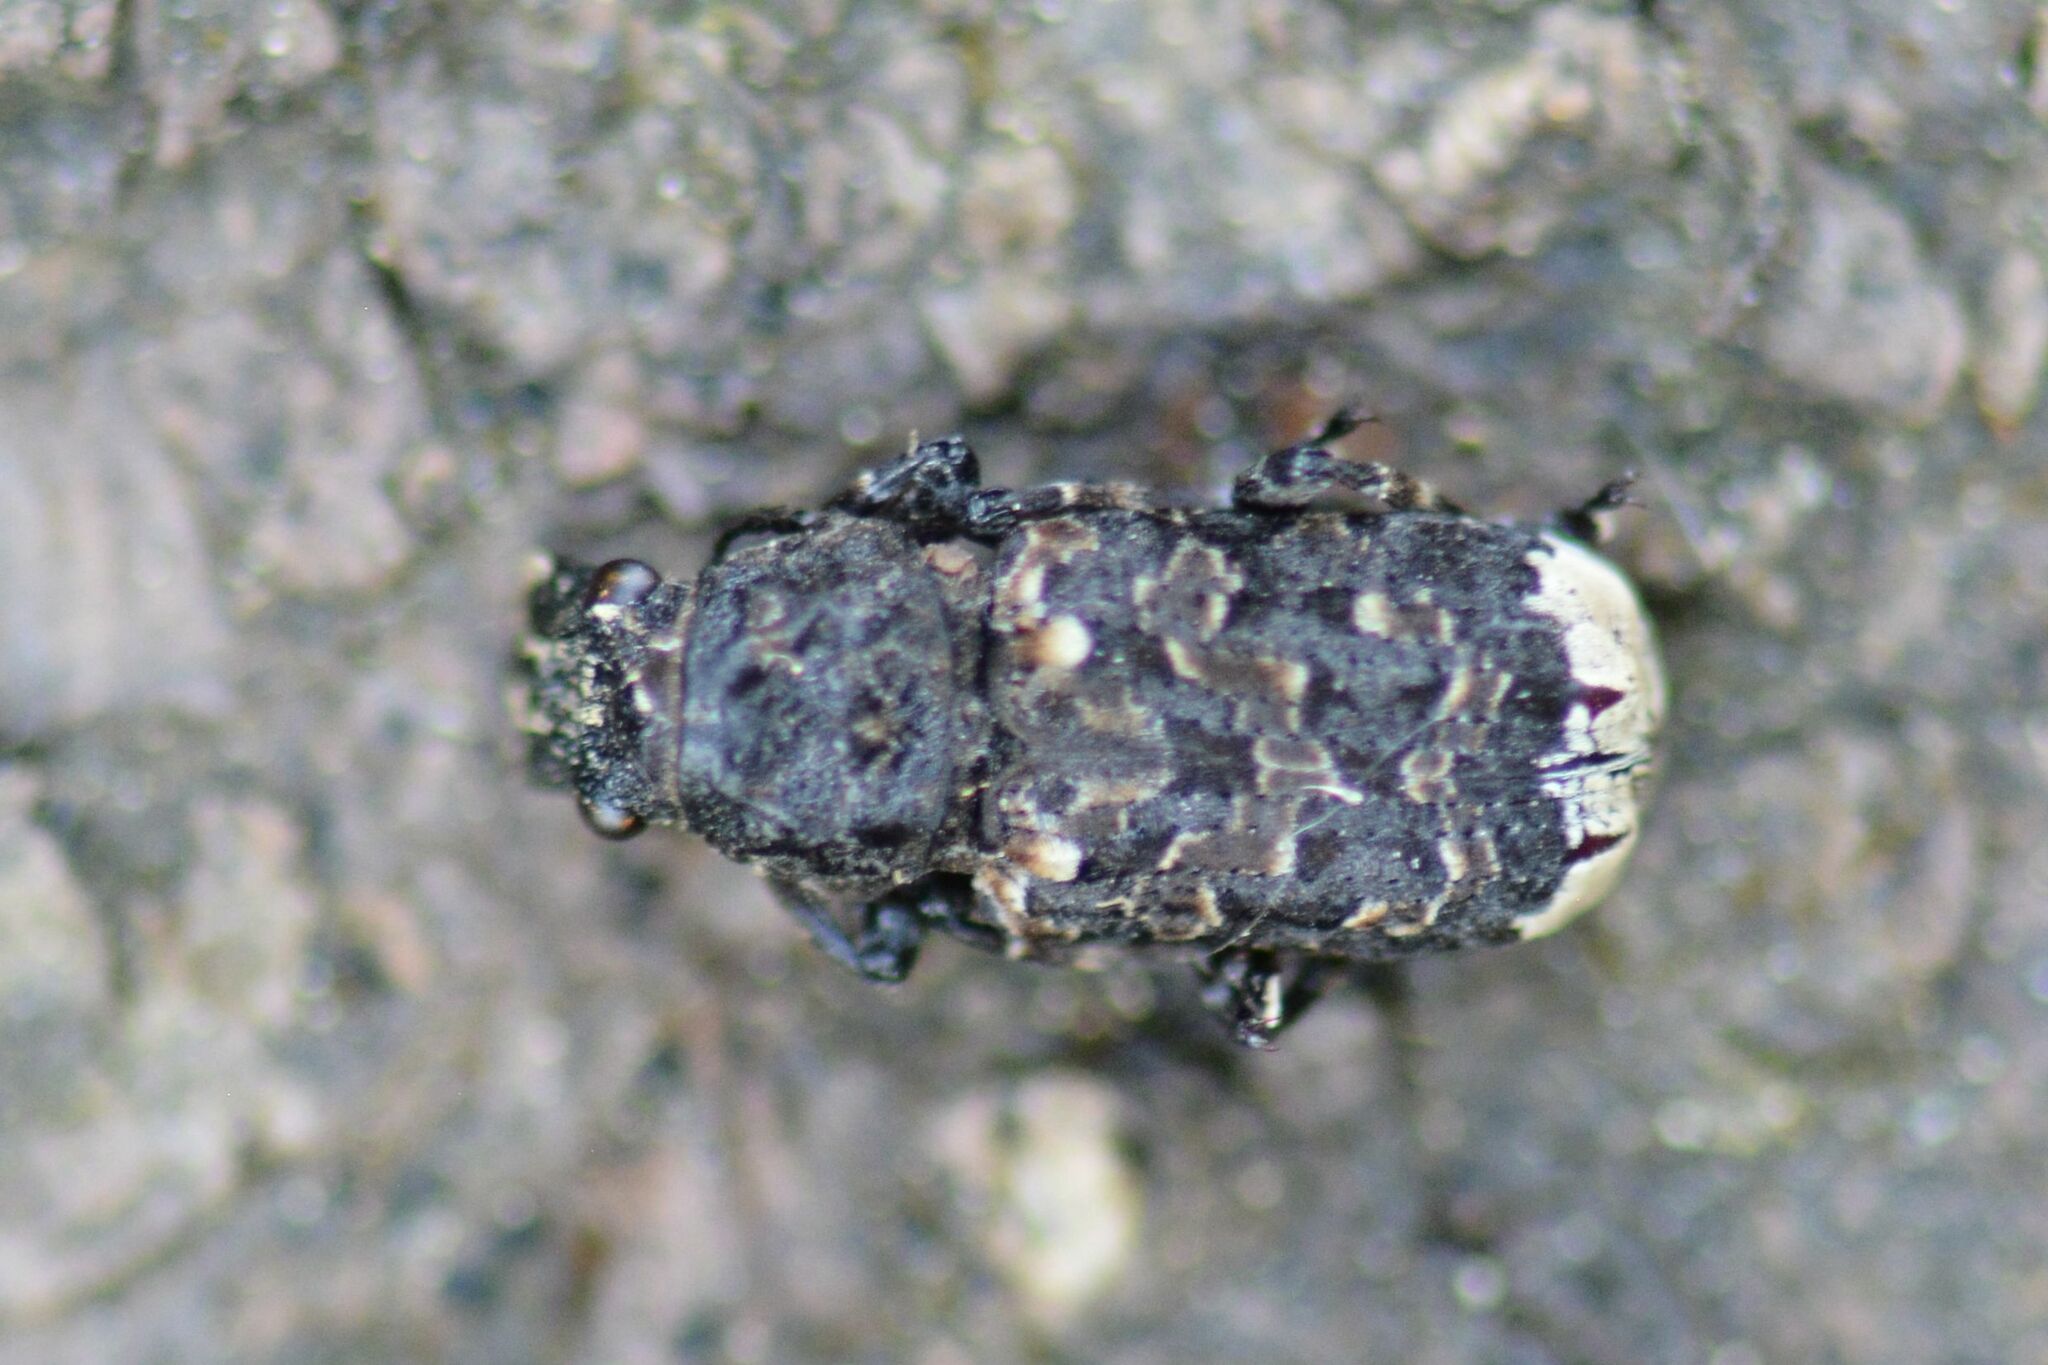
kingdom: Animalia
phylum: Arthropoda
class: Insecta
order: Coleoptera
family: Anthribidae
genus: Platyrhinus
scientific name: Platyrhinus resinosus
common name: Cramp-ball fungus weevil
